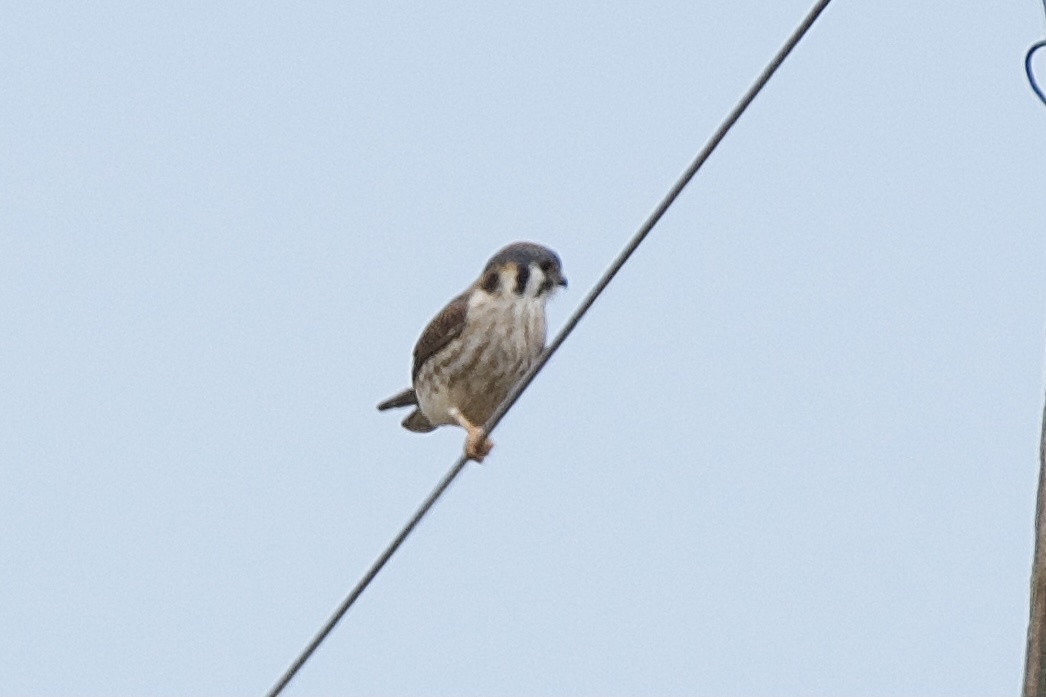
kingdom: Animalia
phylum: Chordata
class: Aves
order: Falconiformes
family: Falconidae
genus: Falco
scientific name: Falco sparverius
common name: American kestrel
